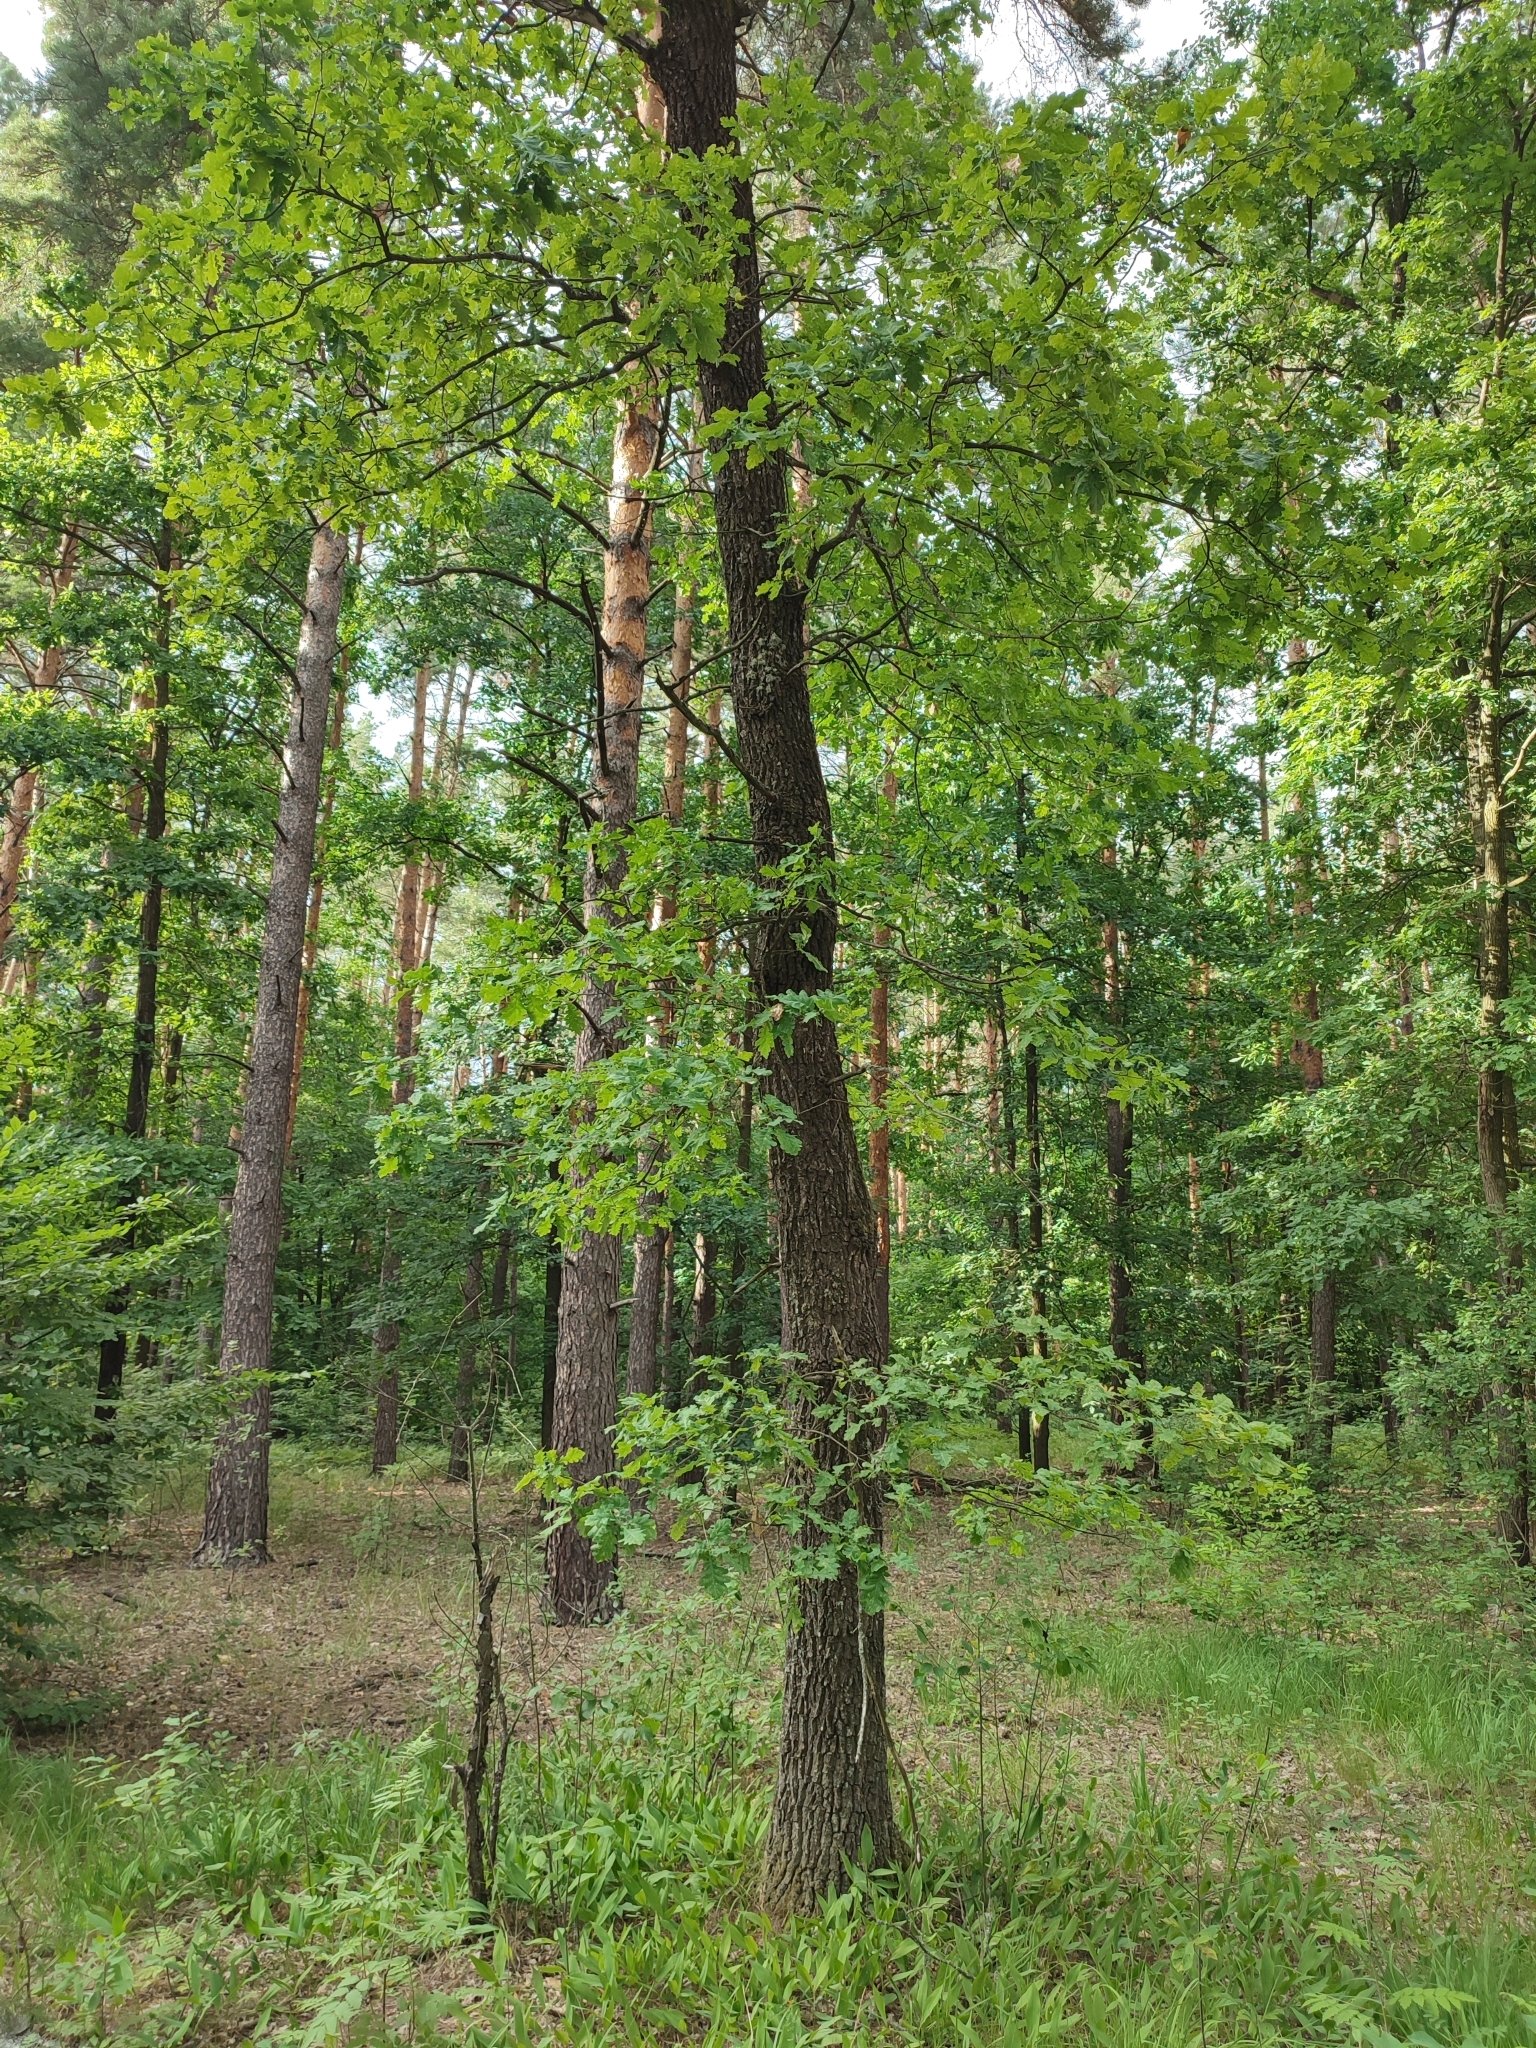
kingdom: Plantae
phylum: Tracheophyta
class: Magnoliopsida
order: Fagales
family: Fagaceae
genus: Quercus
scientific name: Quercus robur
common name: Pedunculate oak
